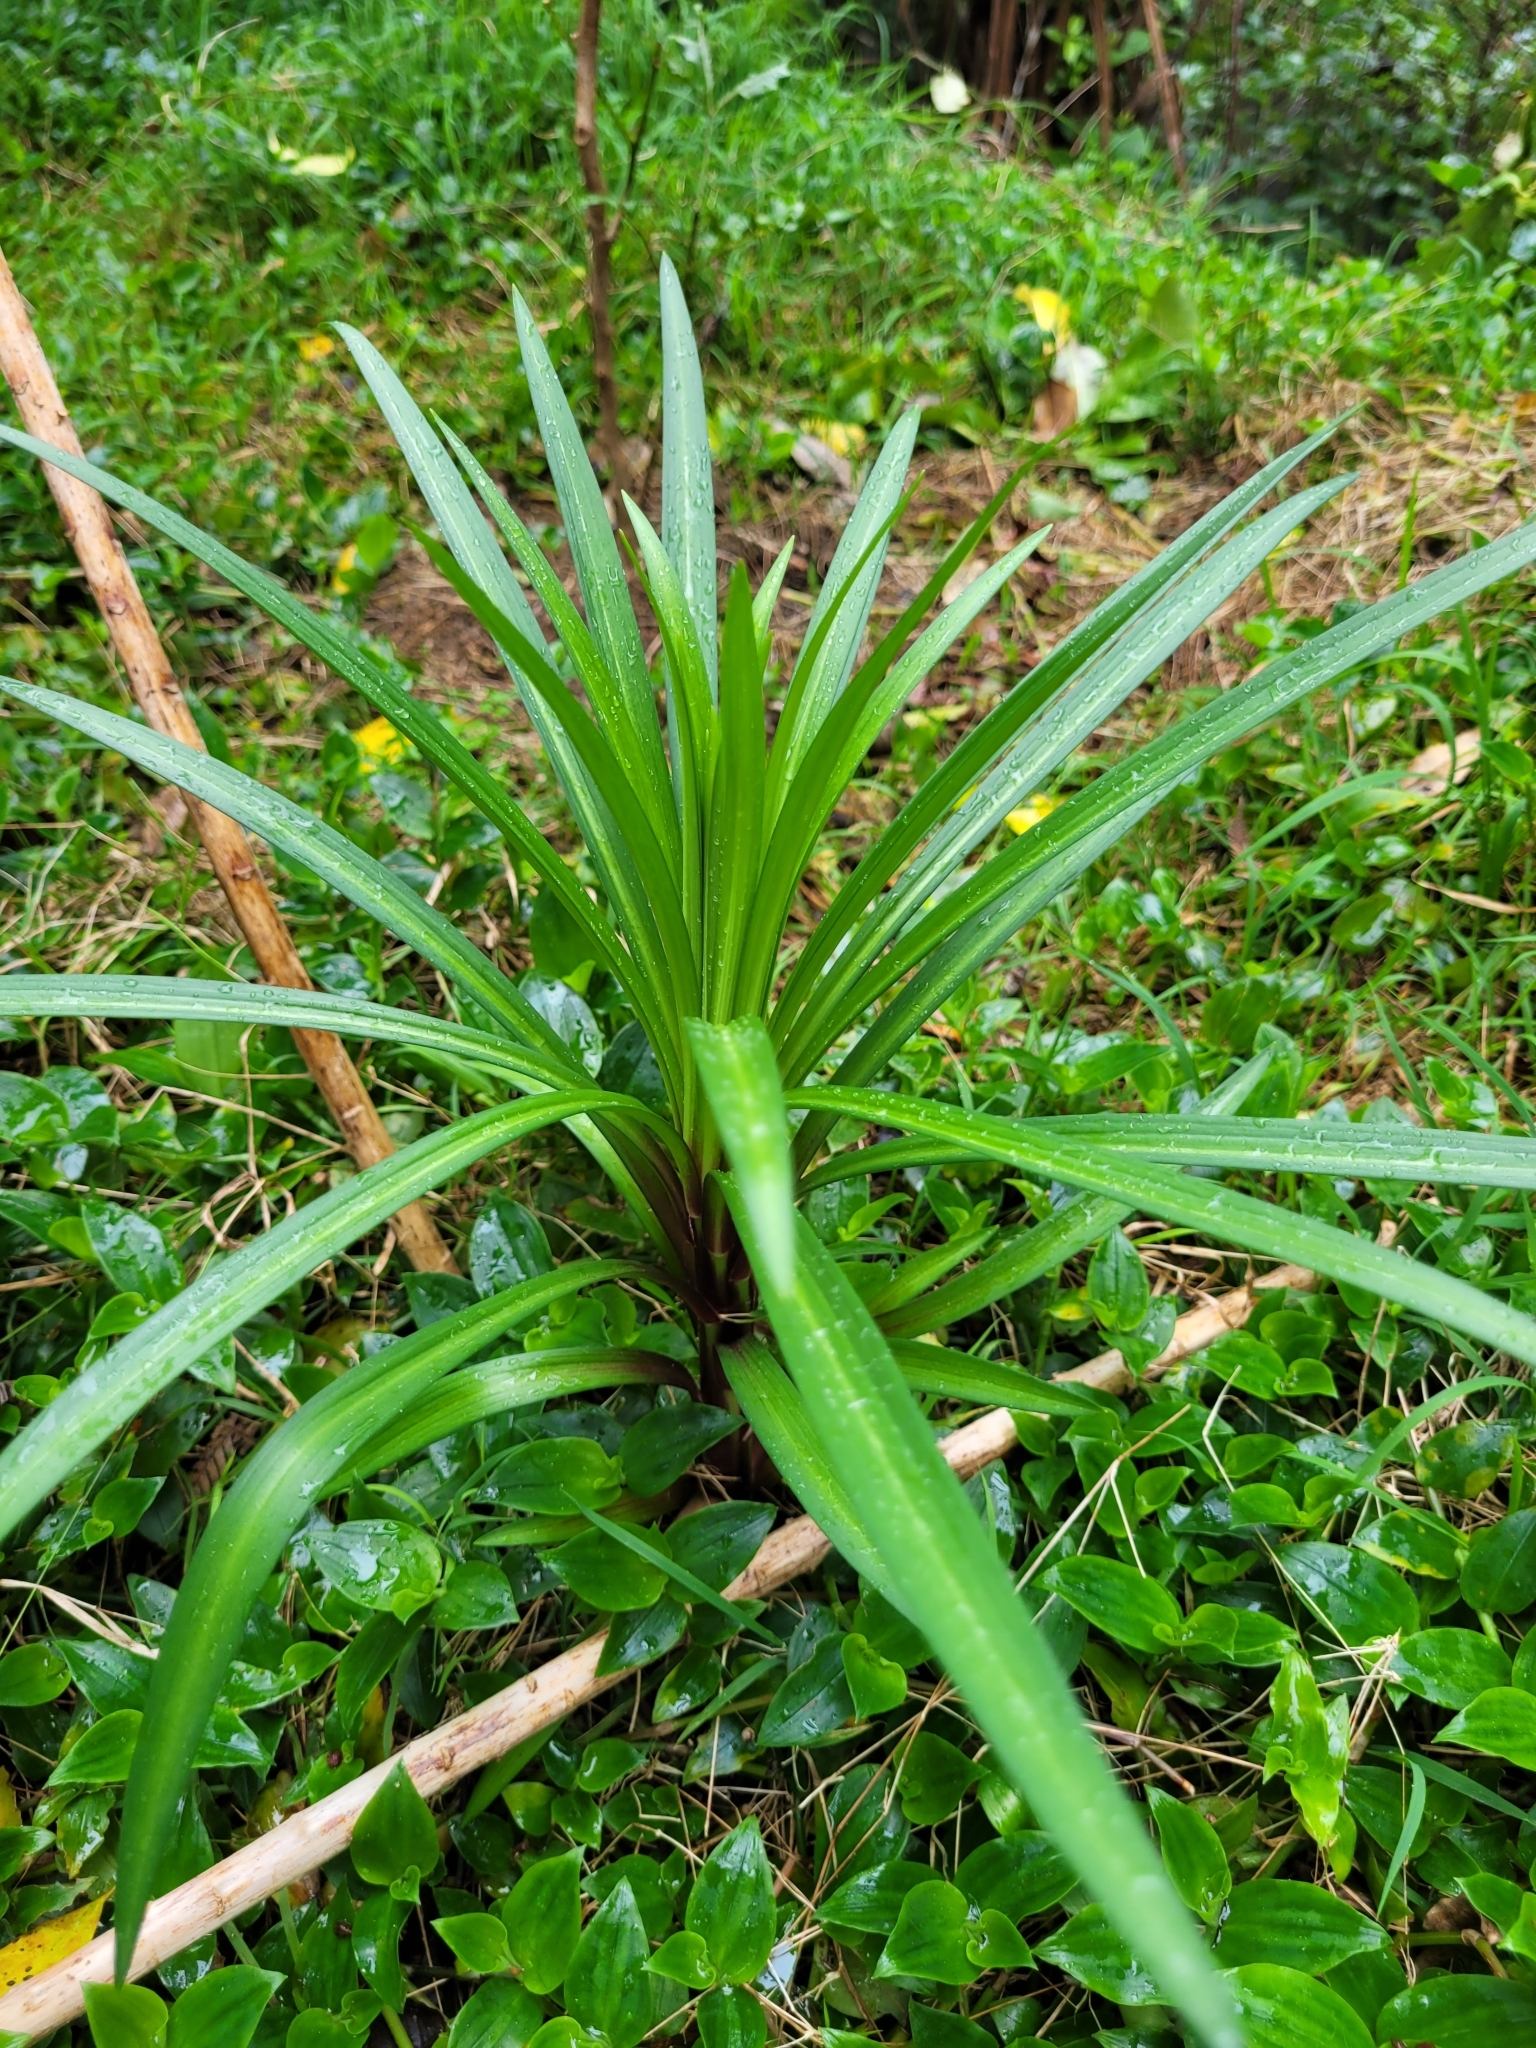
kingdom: Plantae
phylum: Tracheophyta
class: Liliopsida
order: Liliales
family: Liliaceae
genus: Lilium
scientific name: Lilium formosanum
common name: Formosa lily
